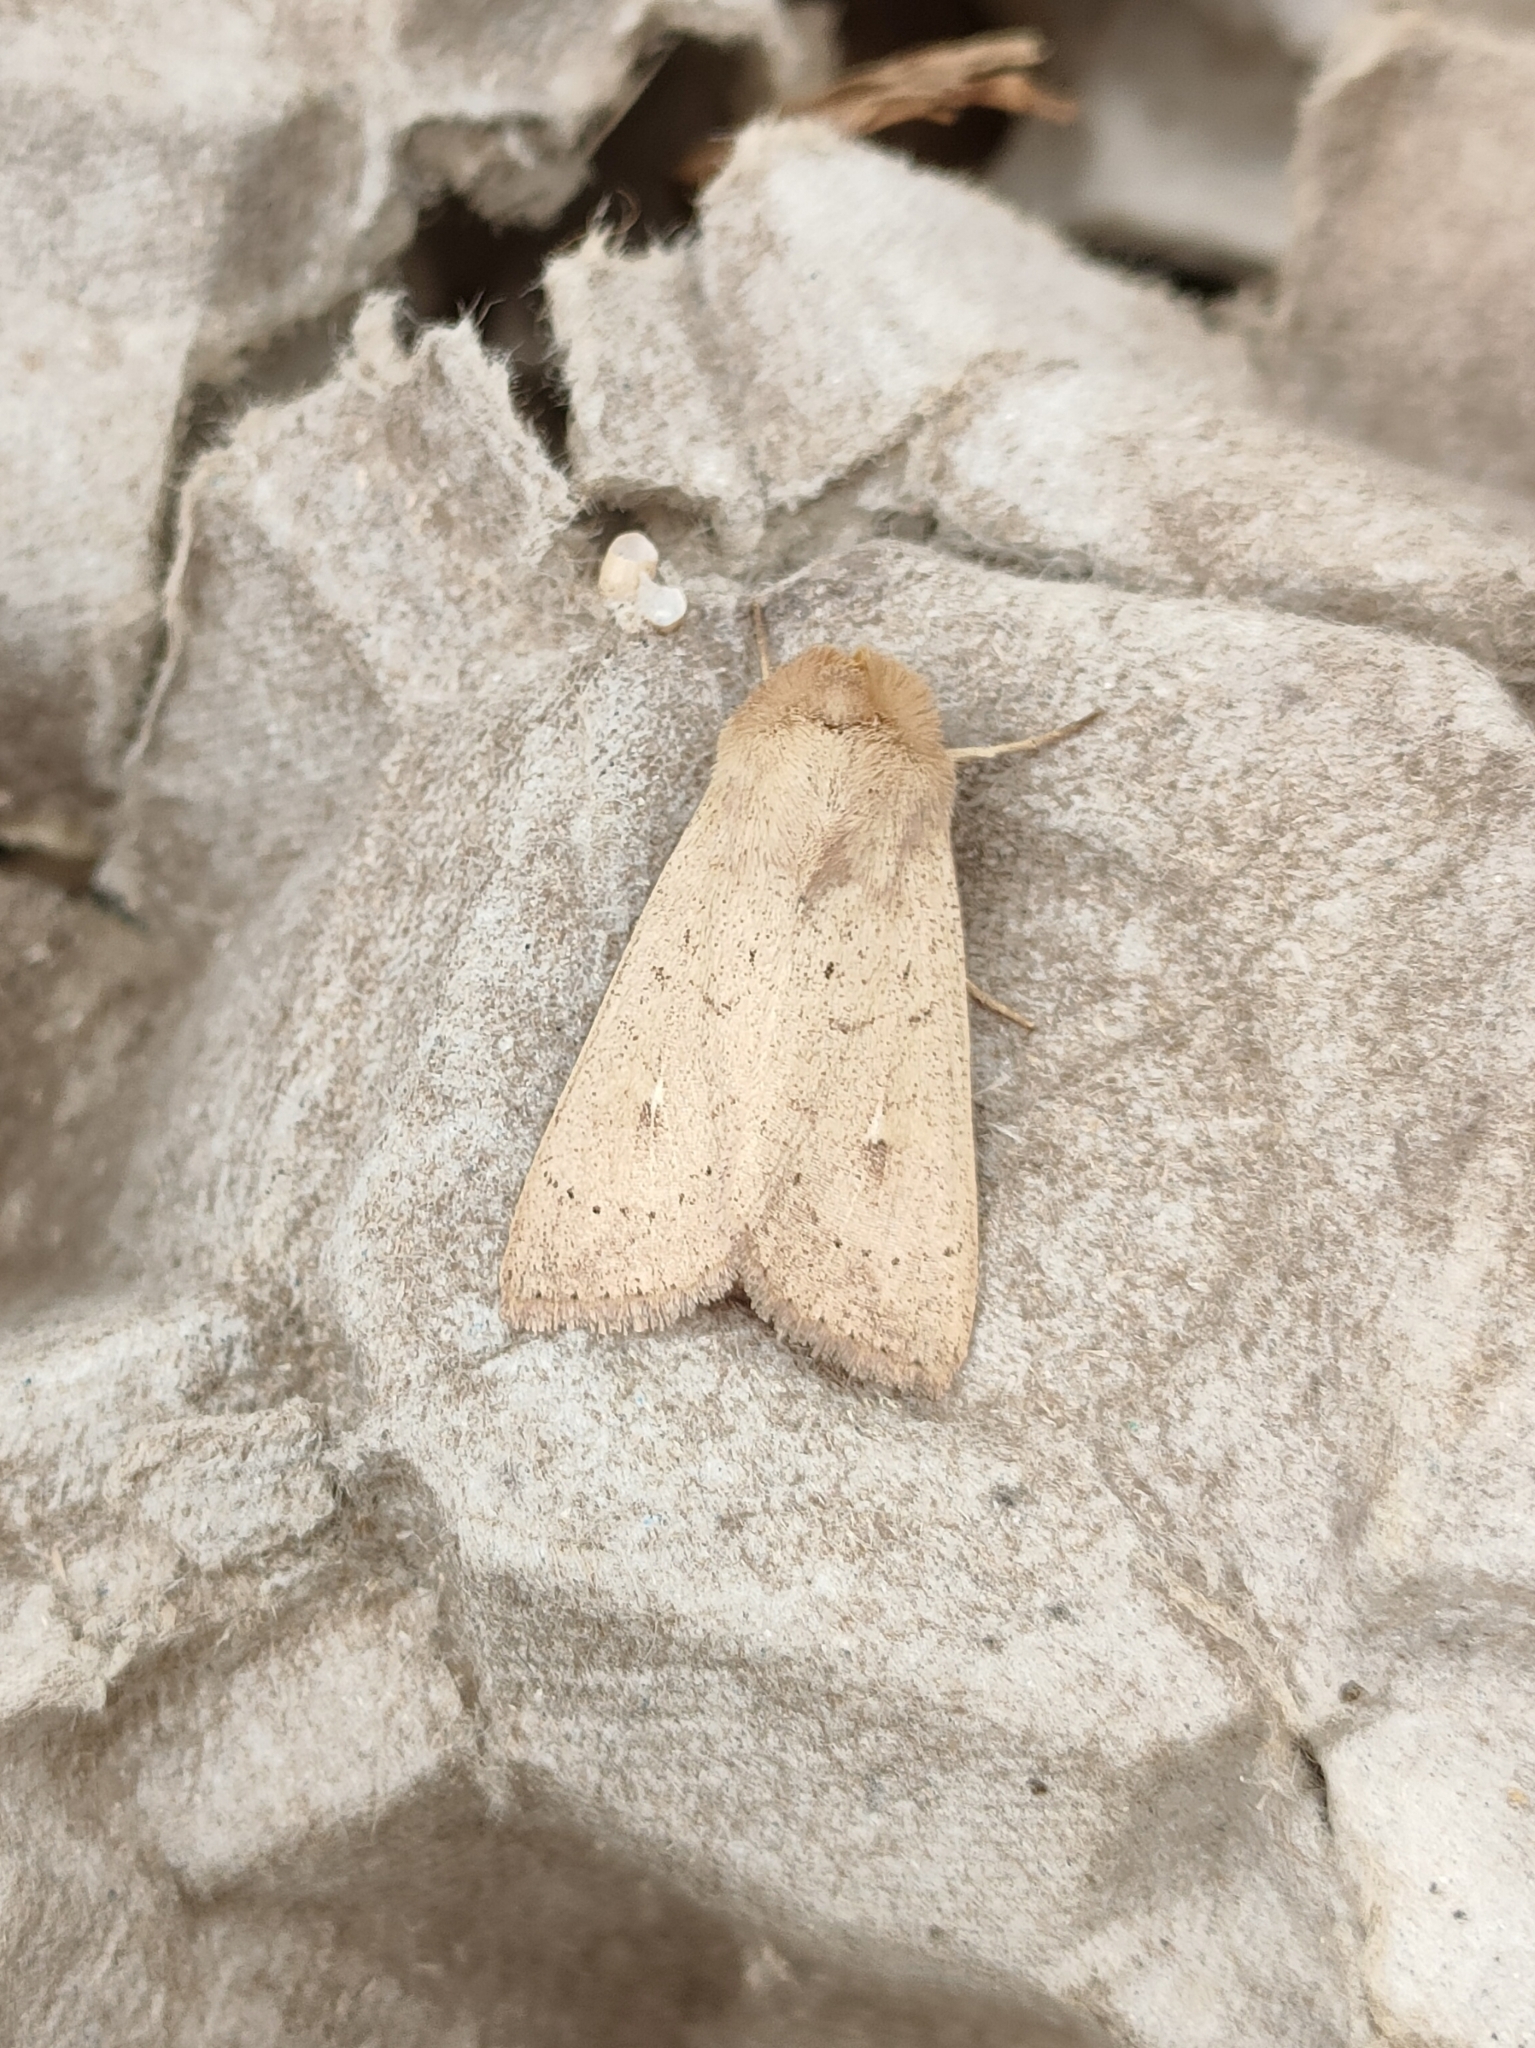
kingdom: Animalia
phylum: Arthropoda
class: Insecta
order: Lepidoptera
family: Noctuidae
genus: Mythimna
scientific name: Mythimna ferrago
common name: Clay
